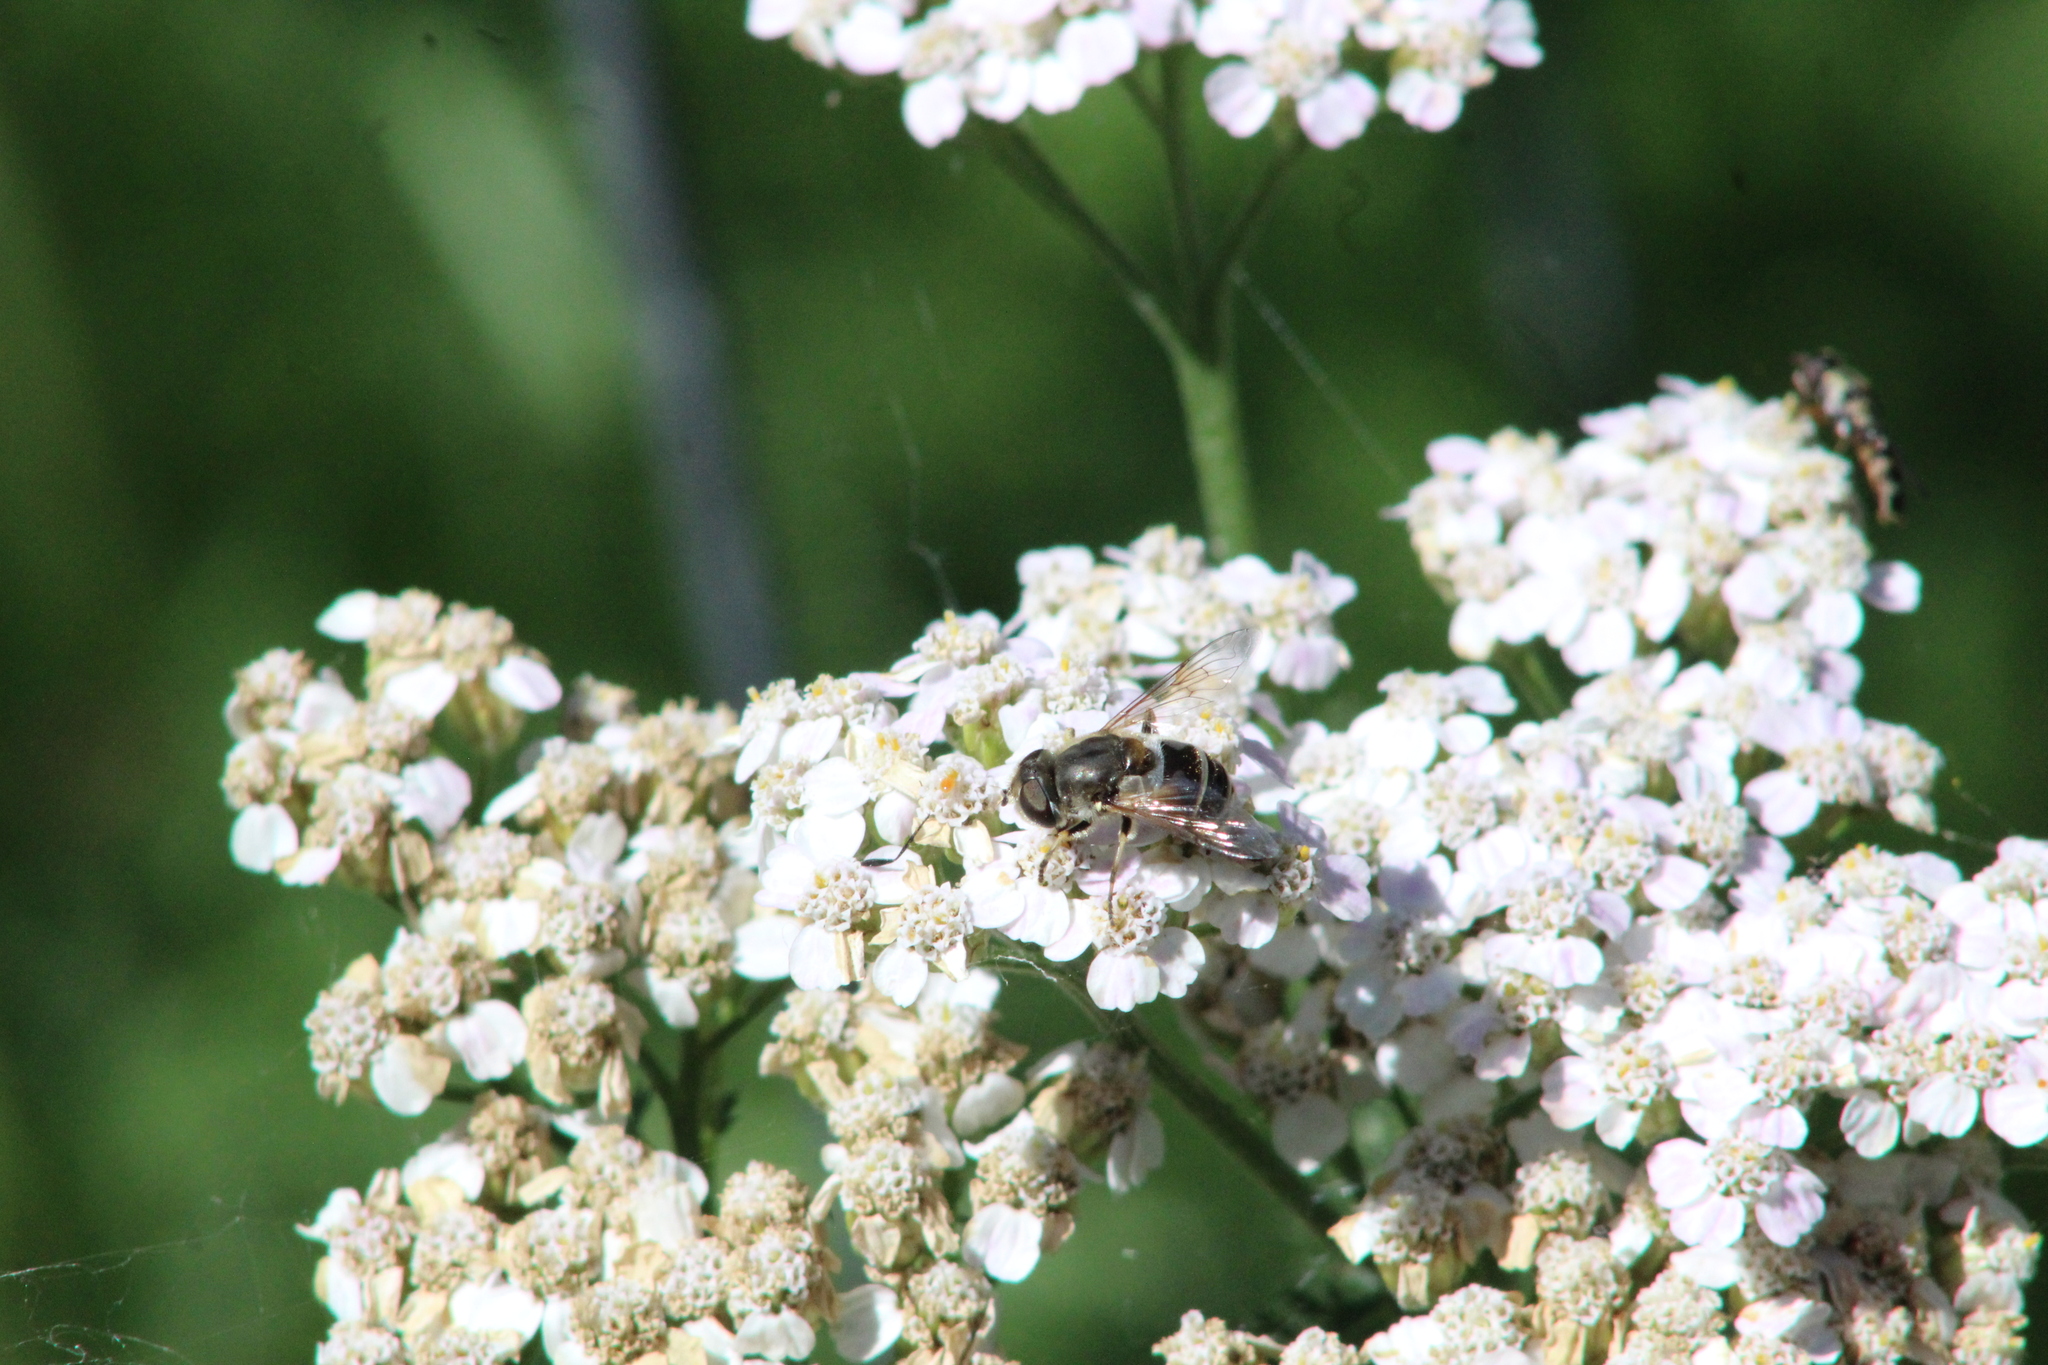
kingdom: Animalia
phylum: Arthropoda
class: Insecta
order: Diptera
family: Syrphidae
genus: Eristalis
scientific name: Eristalis arbustorum
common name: Hover fly
